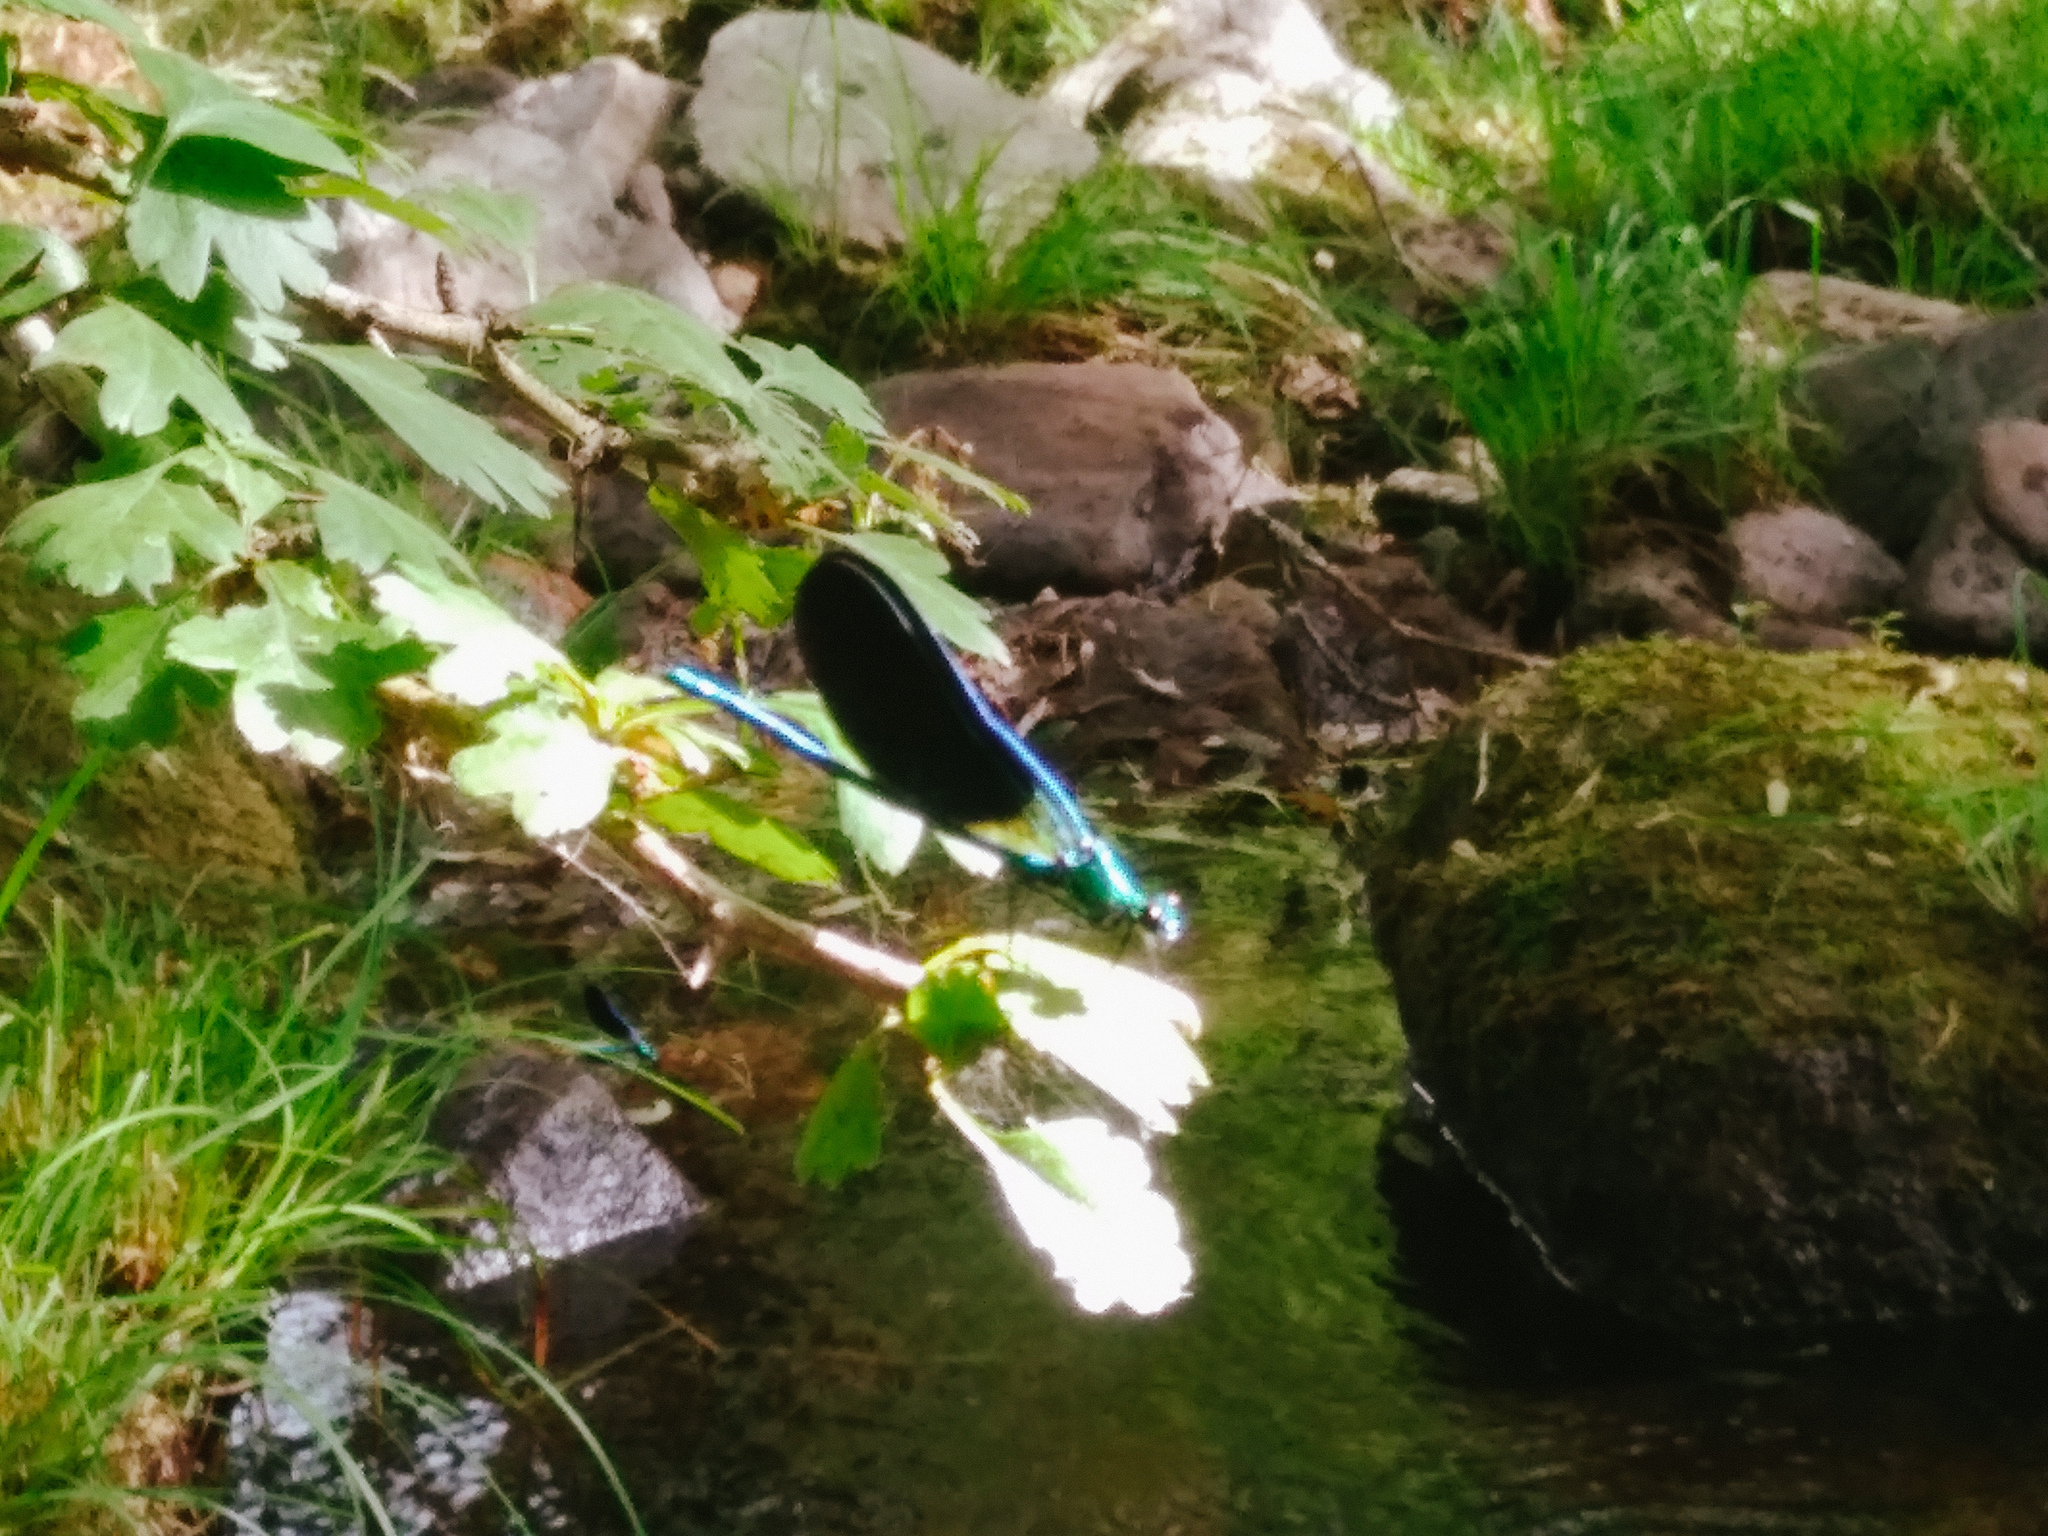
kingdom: Animalia
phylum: Arthropoda
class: Insecta
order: Odonata
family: Calopterygidae
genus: Calopteryx
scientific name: Calopteryx virgo
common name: Beautiful demoiselle
